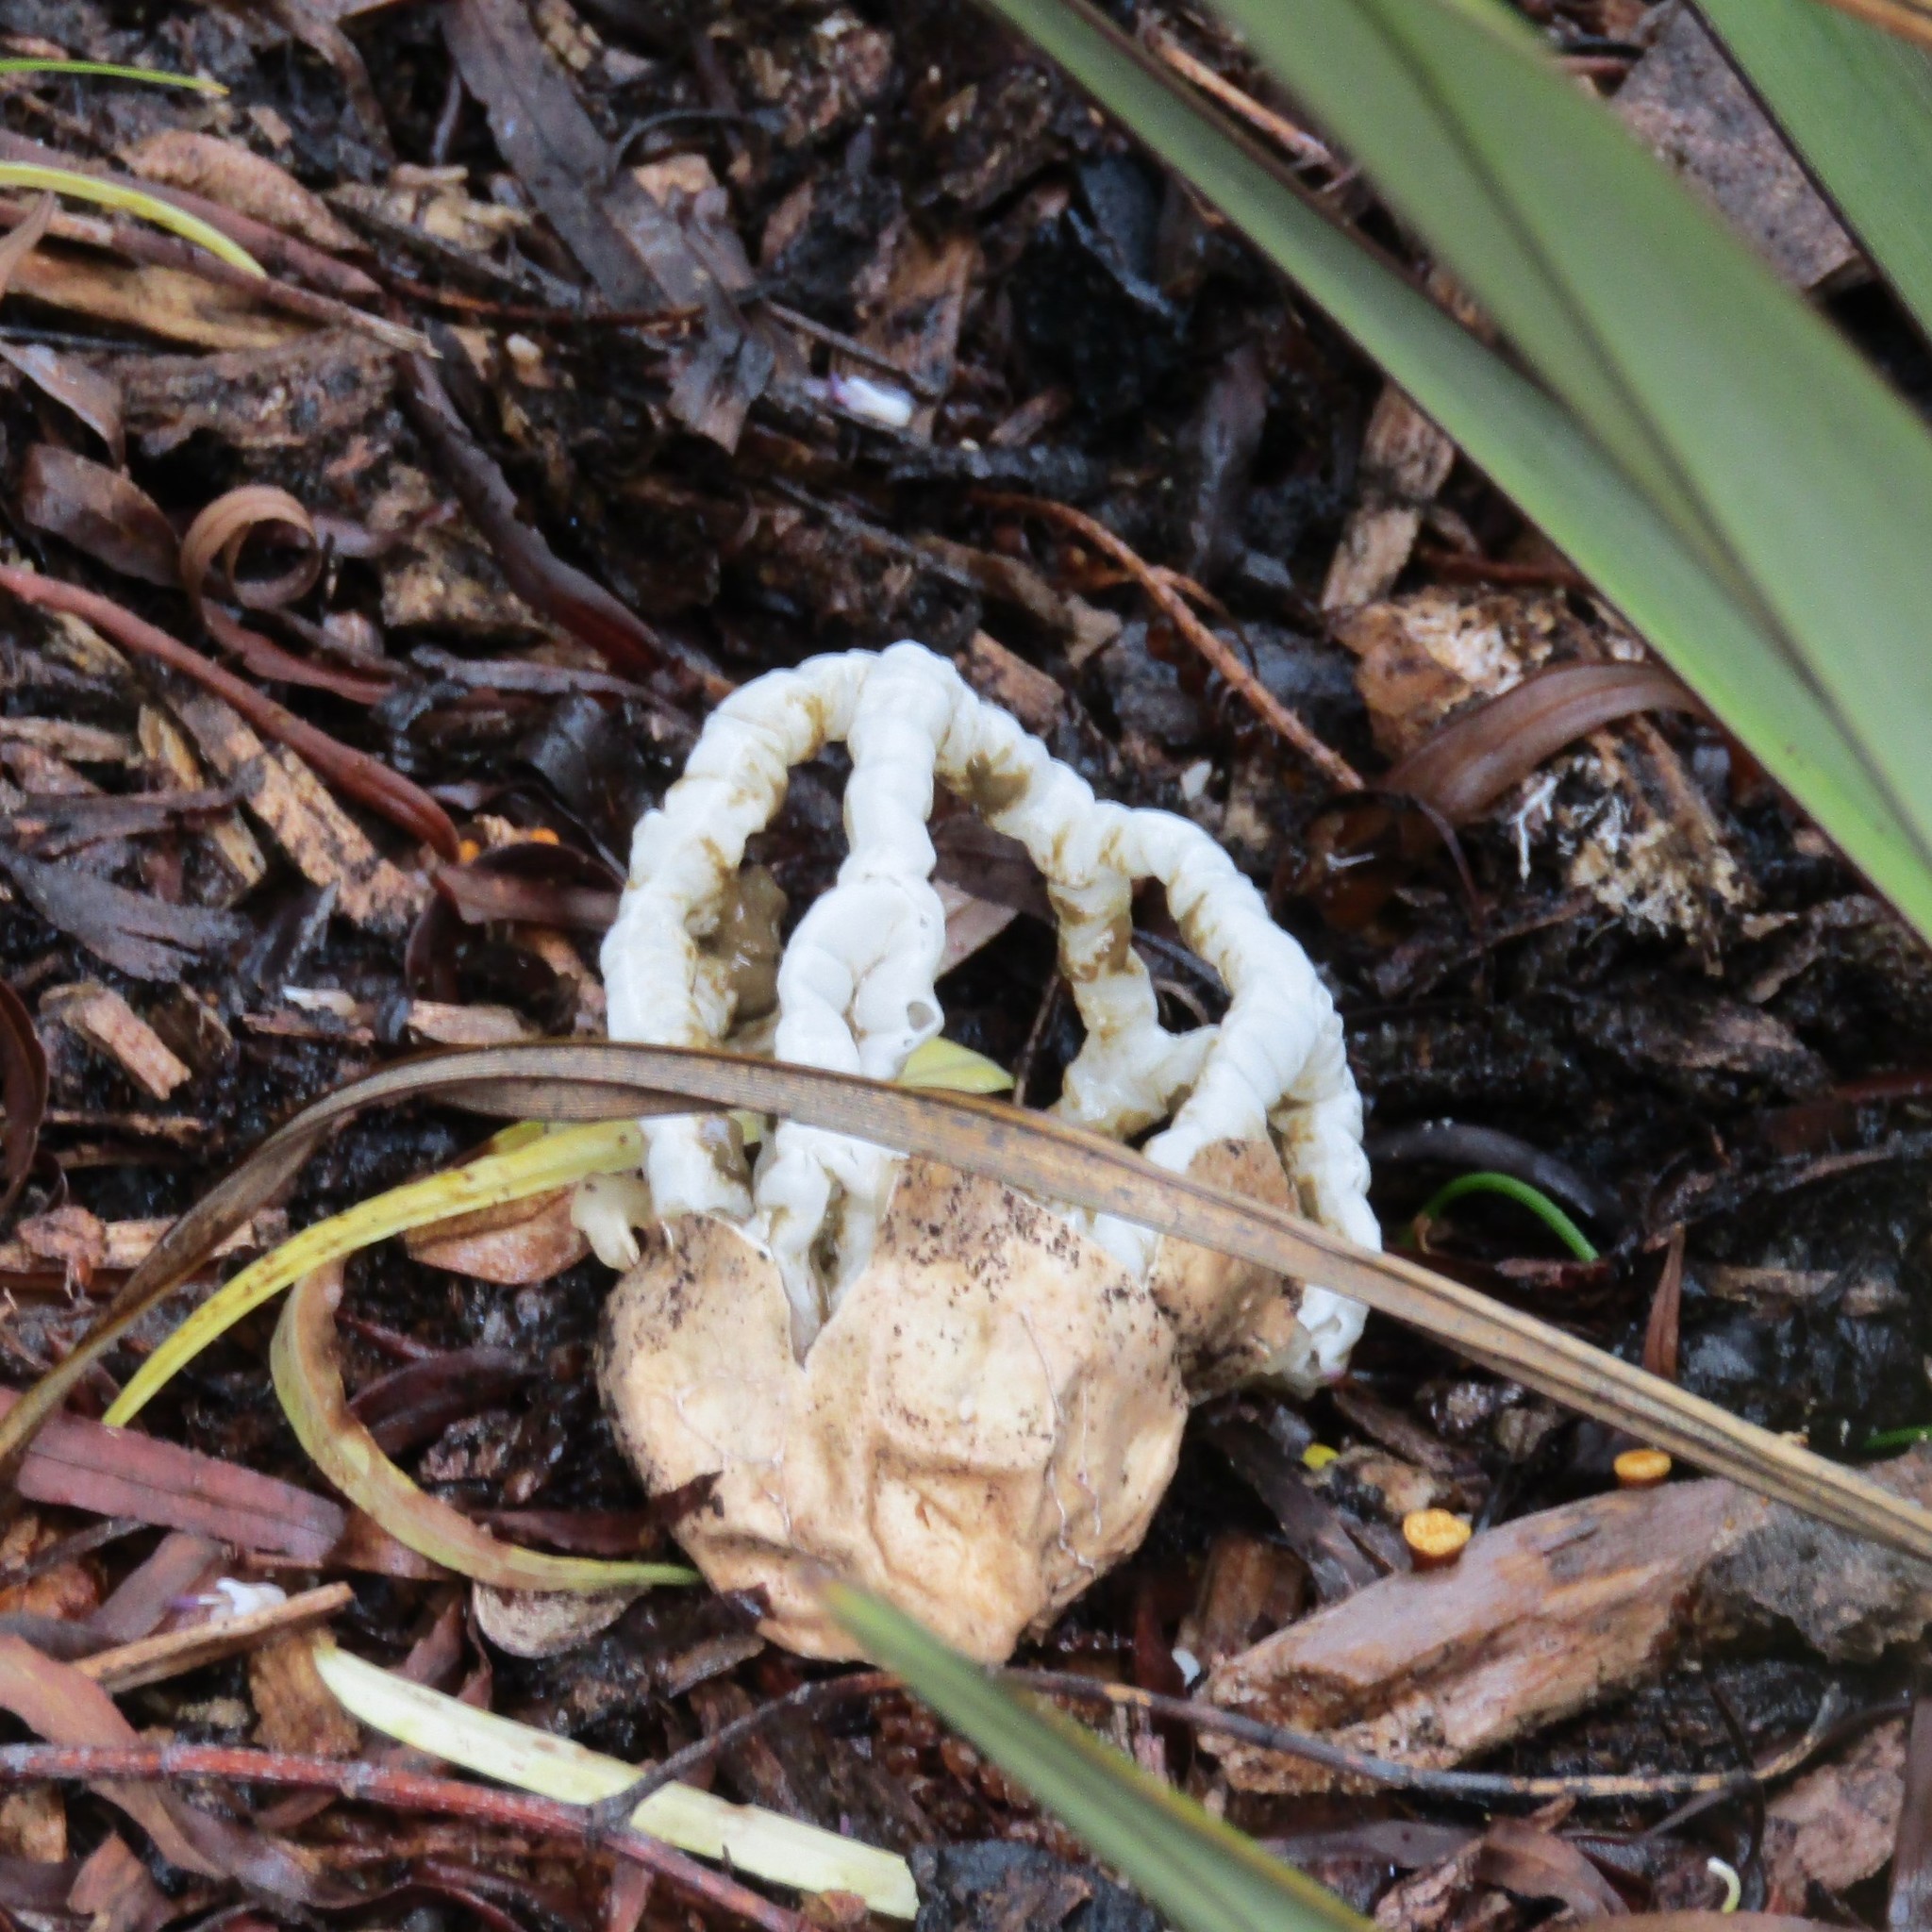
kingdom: Fungi
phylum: Basidiomycota
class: Agaricomycetes
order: Phallales
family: Phallaceae
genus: Ileodictyon
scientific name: Ileodictyon cibarium
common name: Basket fungus
